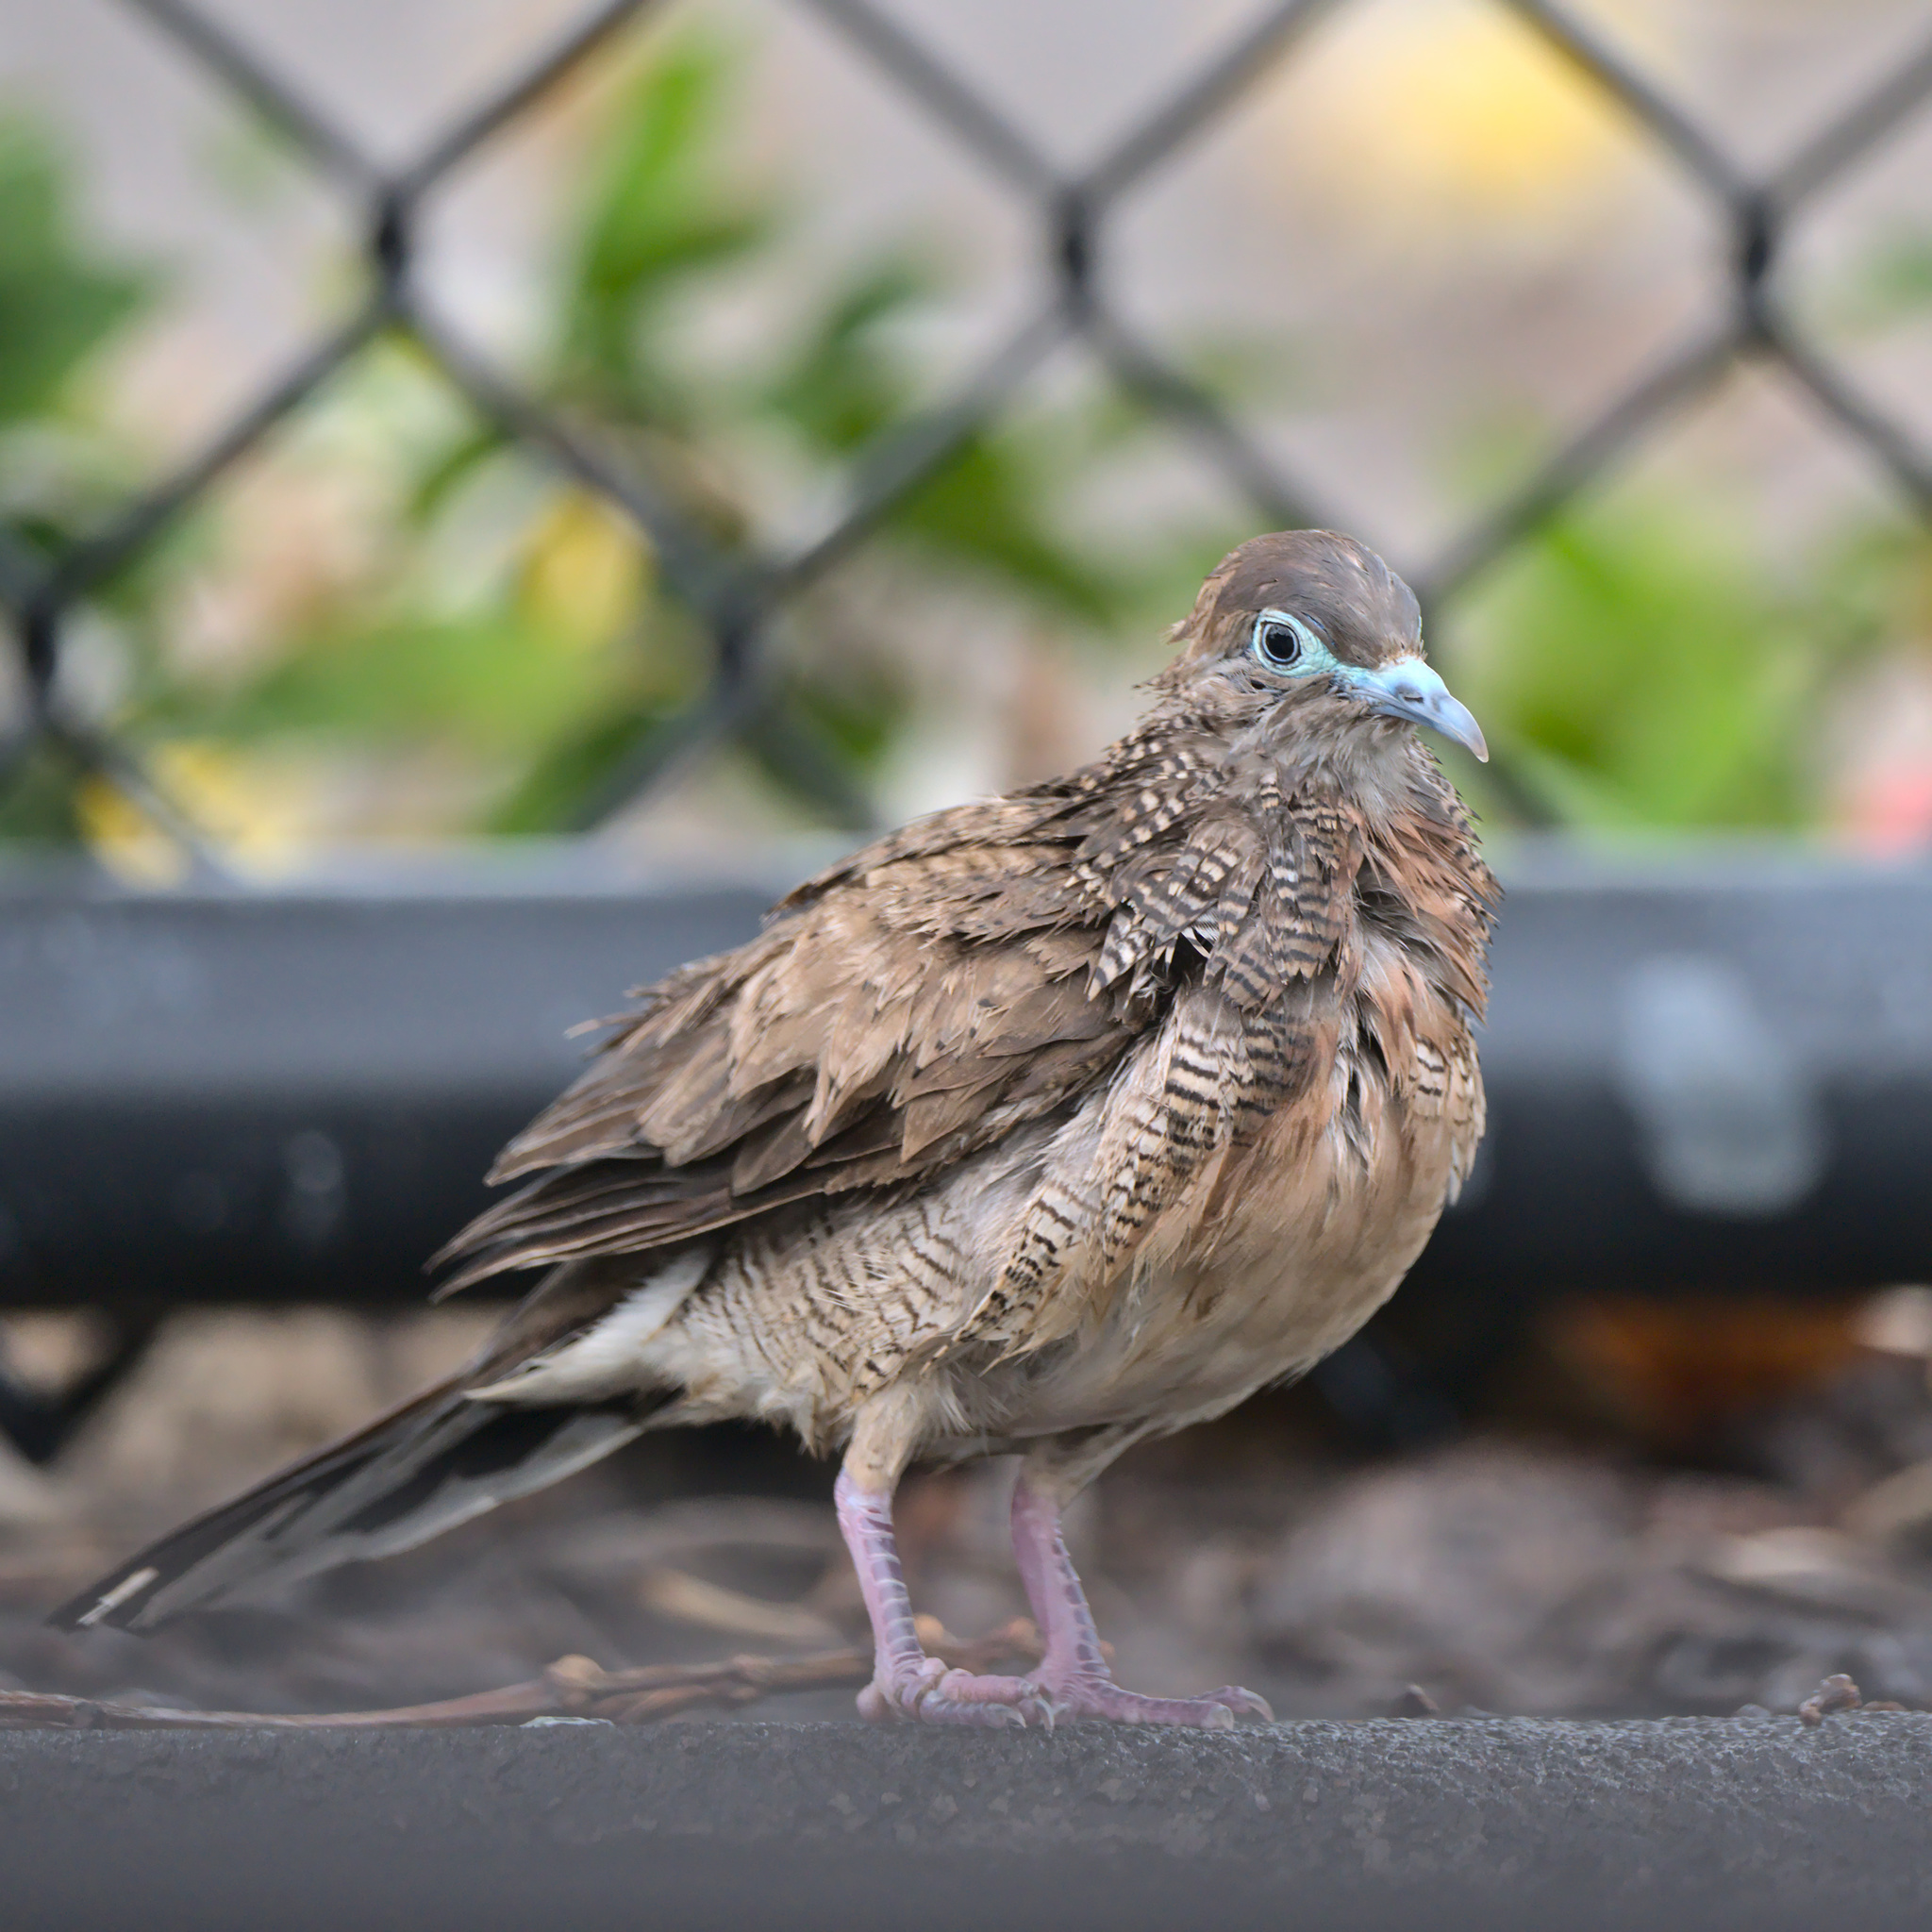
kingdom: Animalia
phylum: Chordata
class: Aves
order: Columbiformes
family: Columbidae
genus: Geopelia
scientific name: Geopelia striata
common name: Zebra dove
